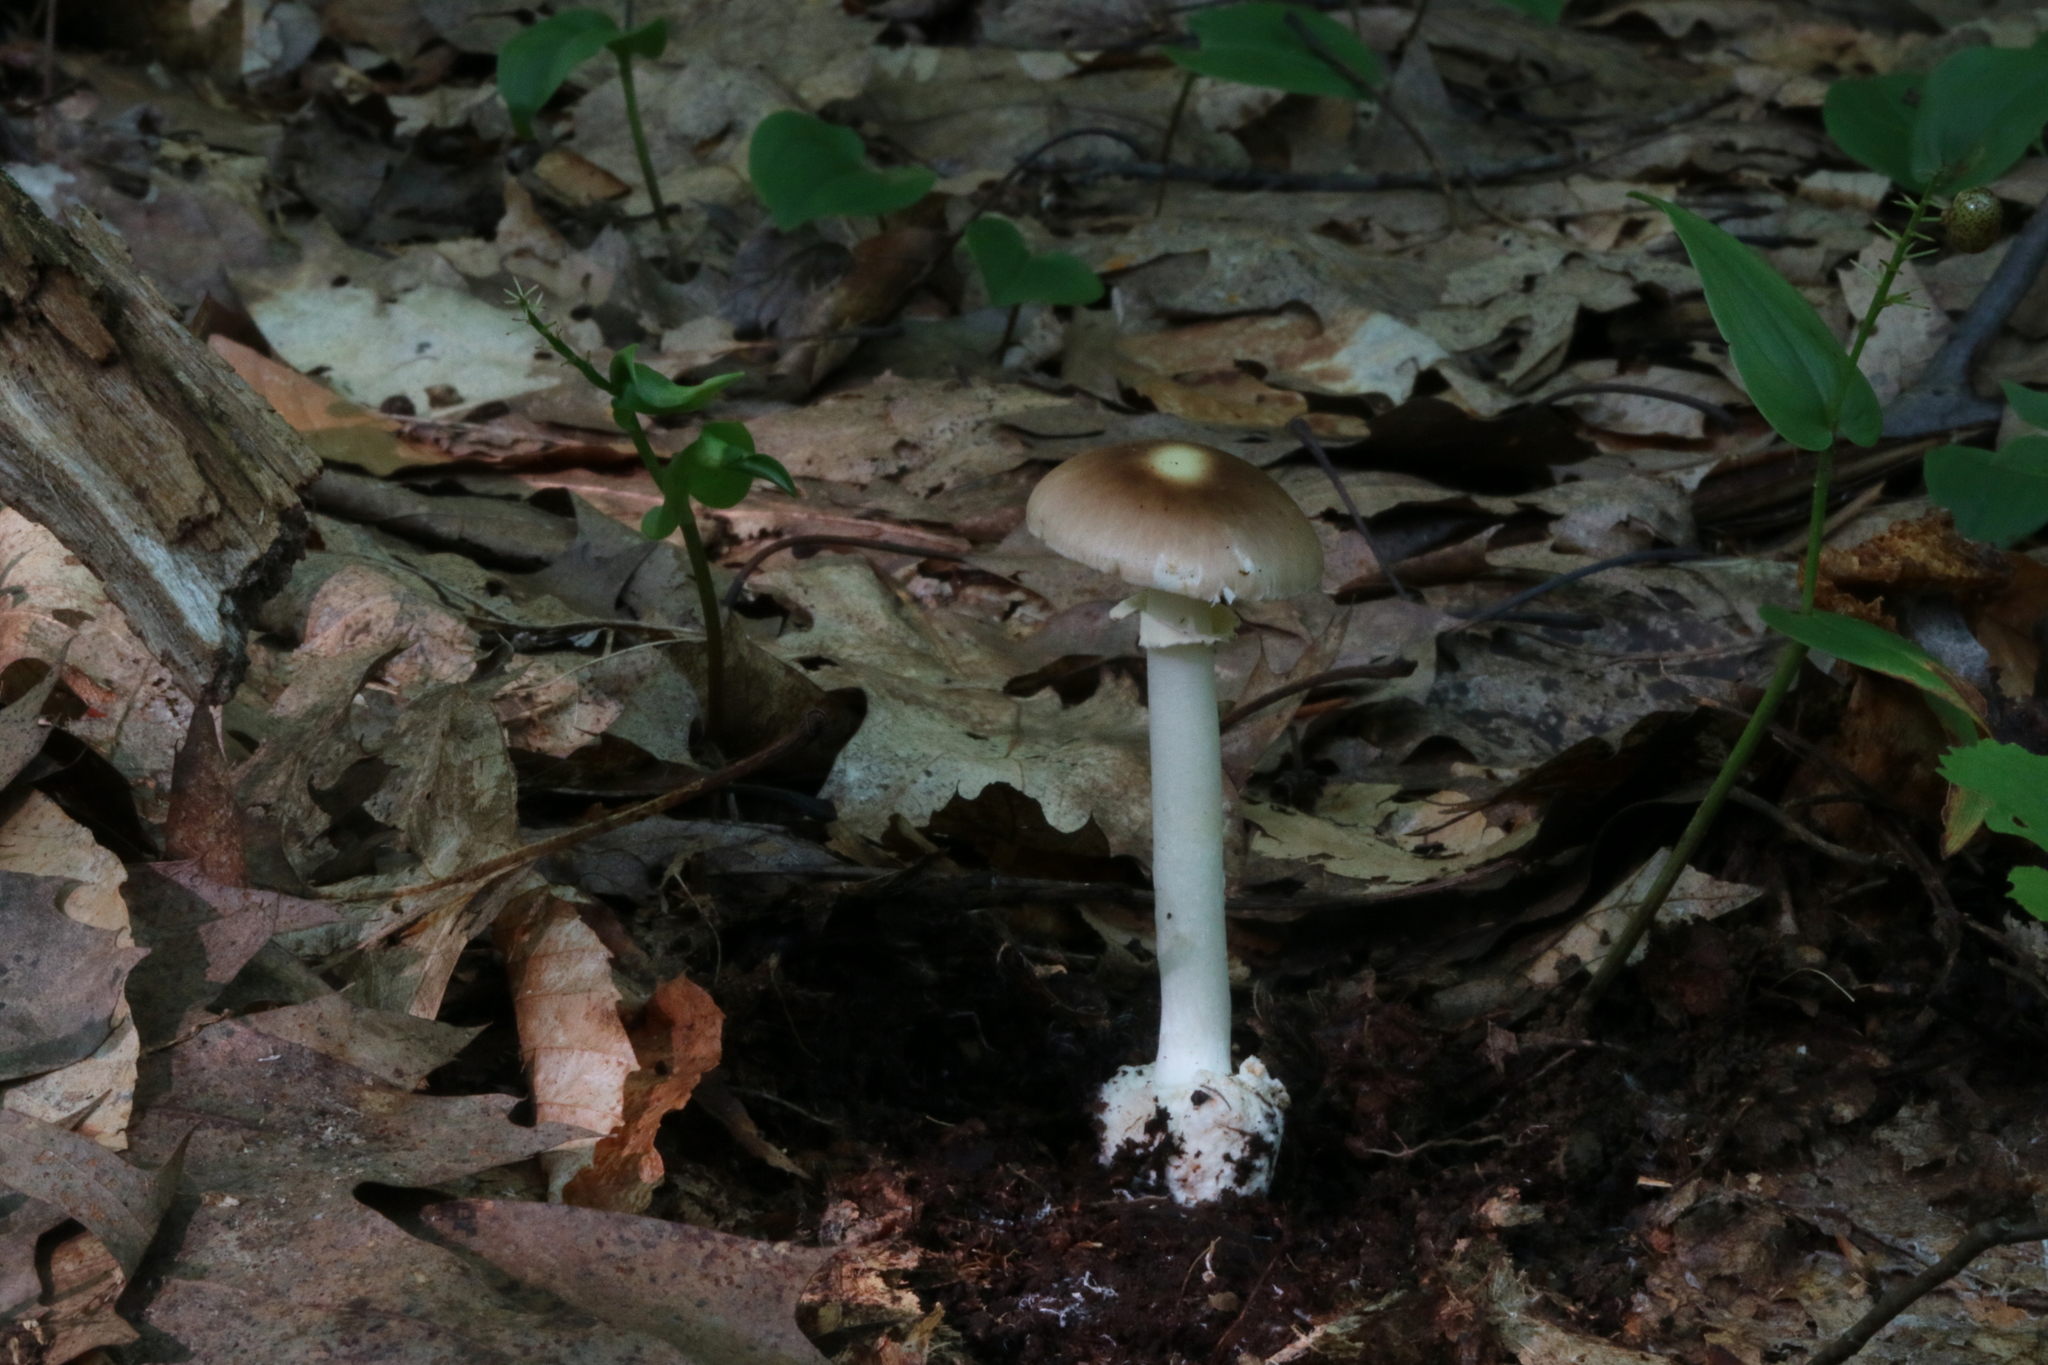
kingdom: Fungi
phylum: Basidiomycota
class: Agaricomycetes
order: Agaricales
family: Amanitaceae
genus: Amanita
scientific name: Amanita solaniolens
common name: Old potato amanita
